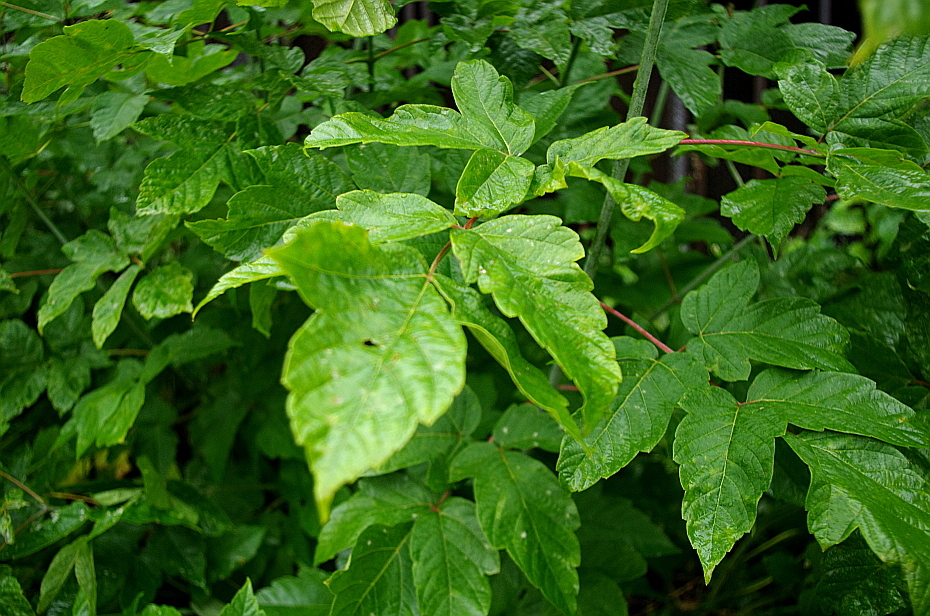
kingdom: Plantae
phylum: Tracheophyta
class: Magnoliopsida
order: Sapindales
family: Sapindaceae
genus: Acer
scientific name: Acer negundo
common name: Ashleaf maple
